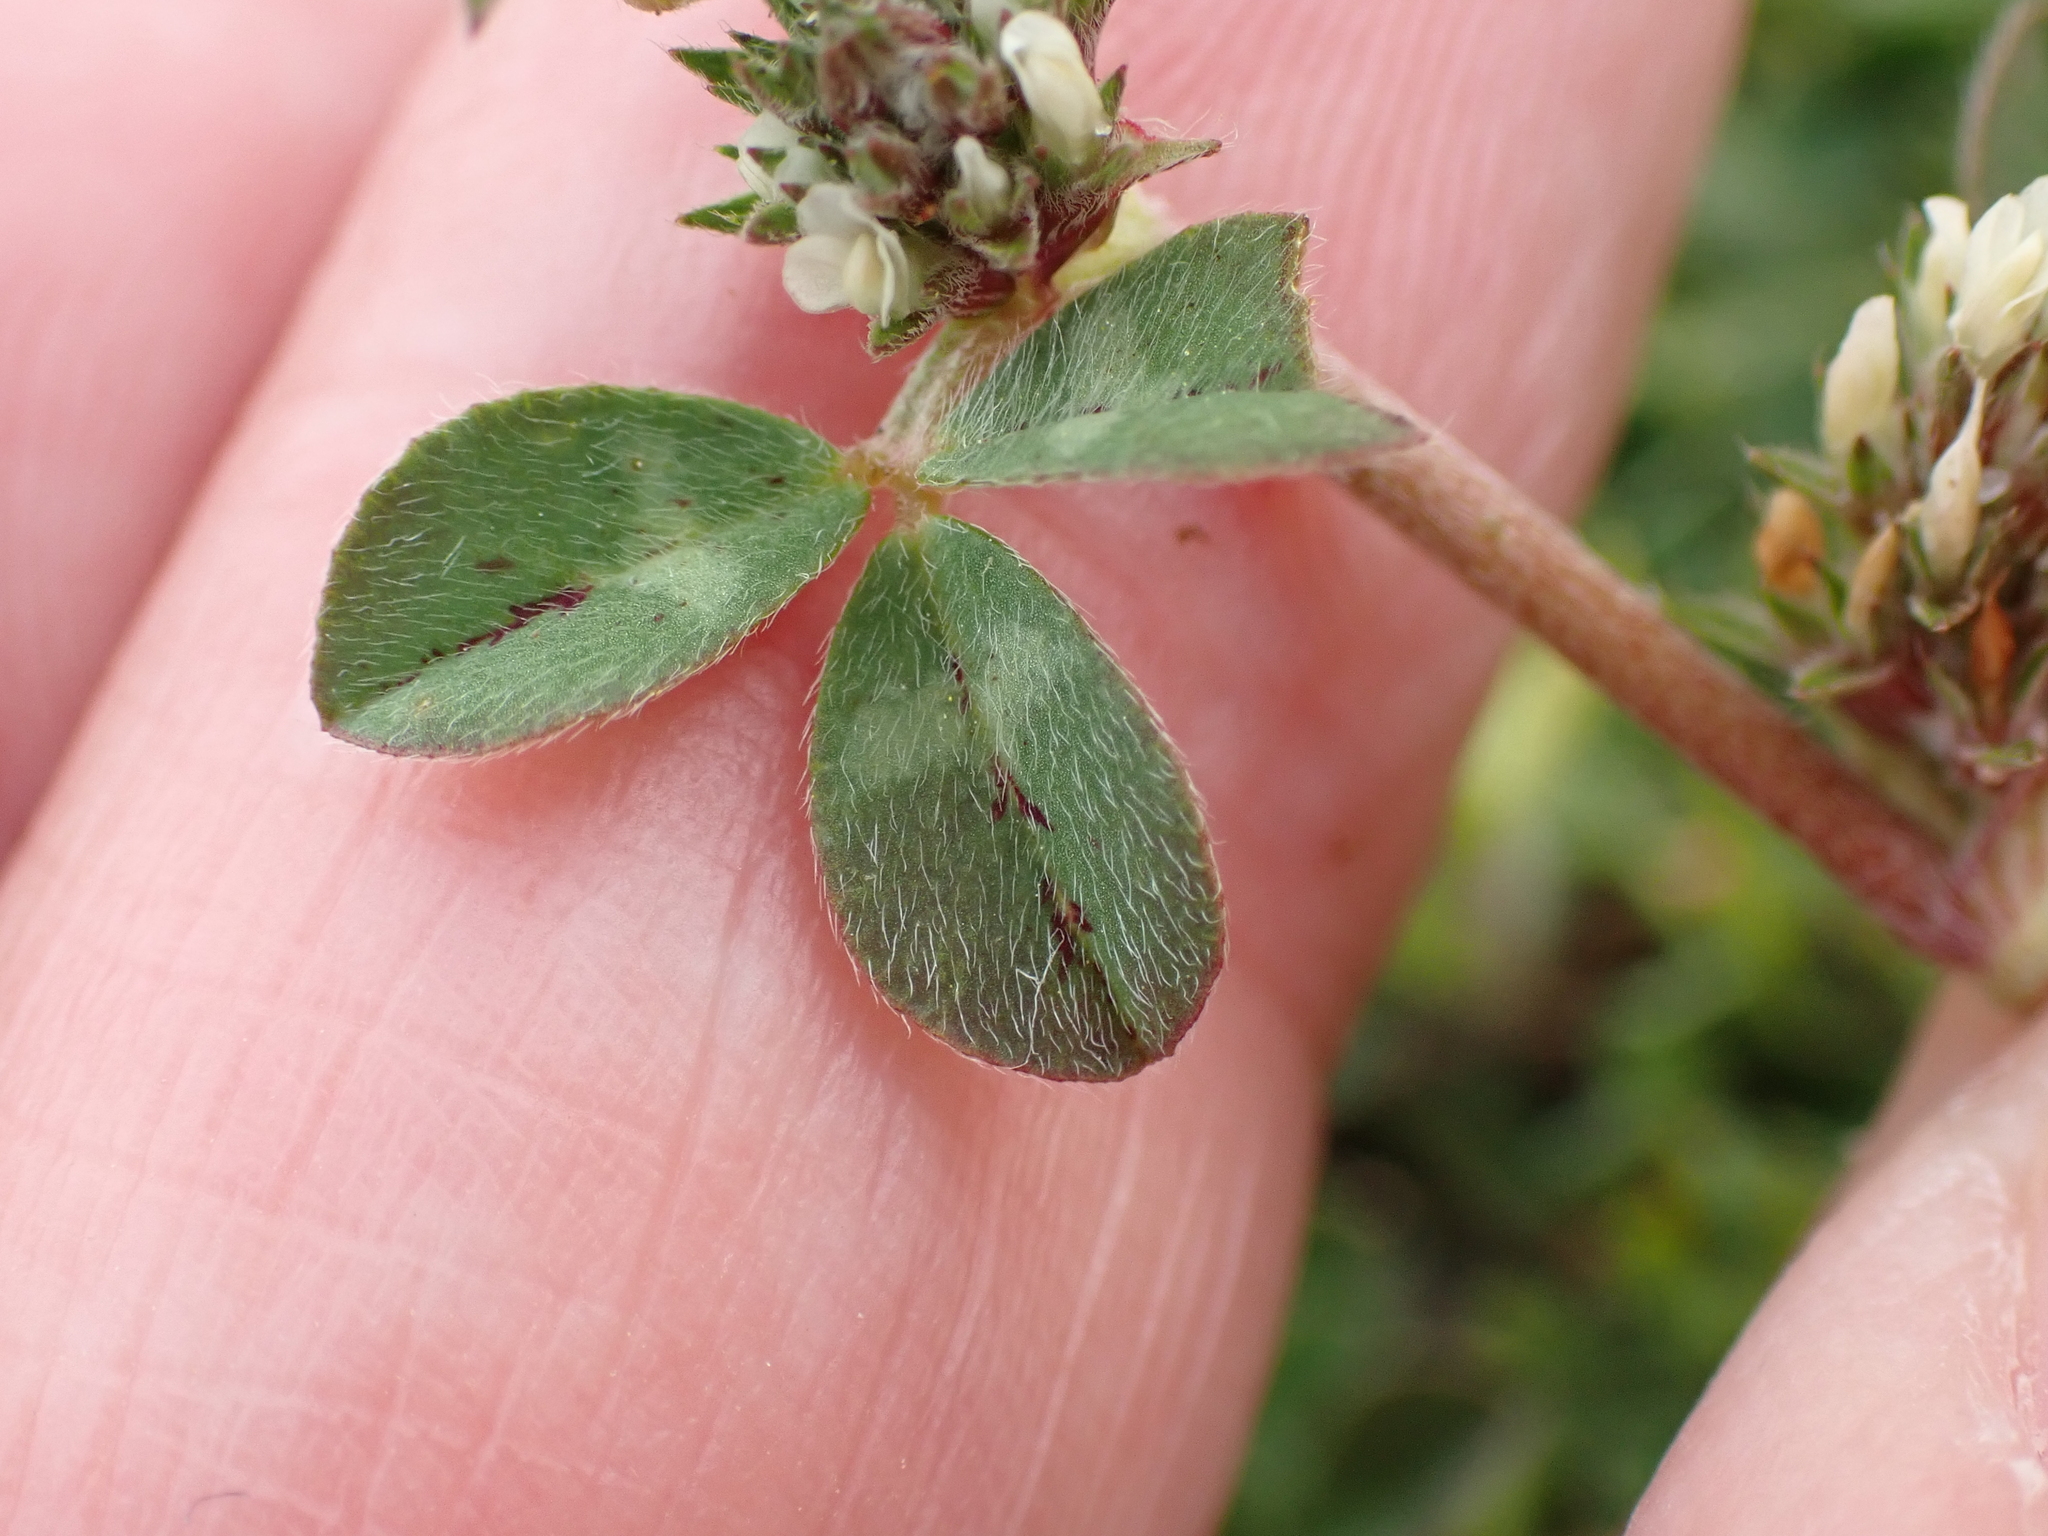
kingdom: Plantae
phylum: Tracheophyta
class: Magnoliopsida
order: Fabales
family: Fabaceae
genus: Trifolium
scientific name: Trifolium scabrum
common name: Rough clover
